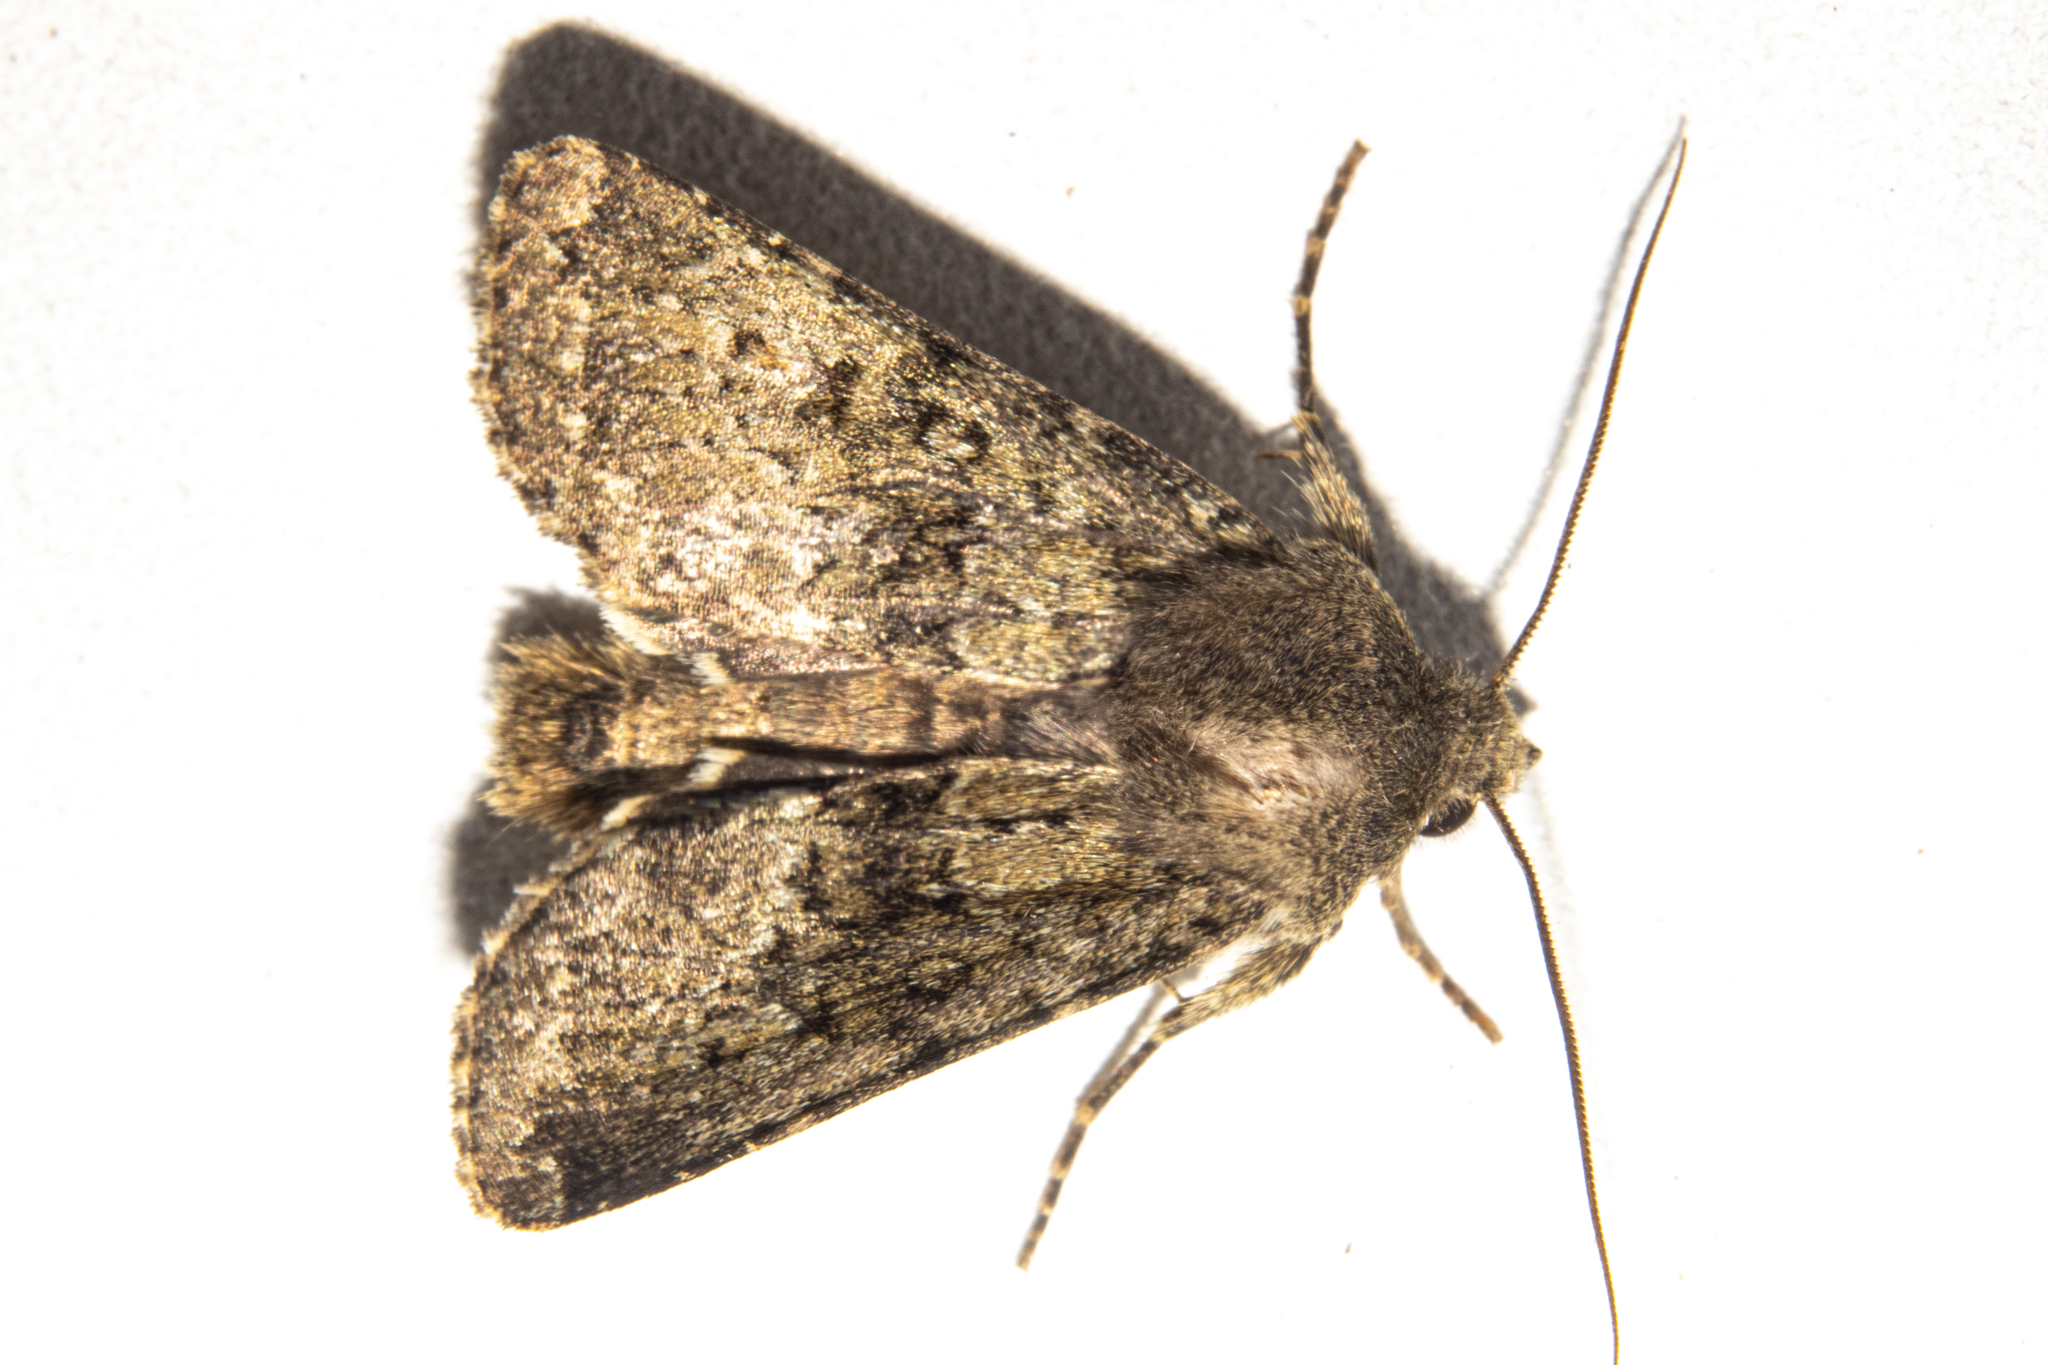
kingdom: Animalia
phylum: Arthropoda
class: Insecta
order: Lepidoptera
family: Noctuidae
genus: Ichneutica
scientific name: Ichneutica moderata
